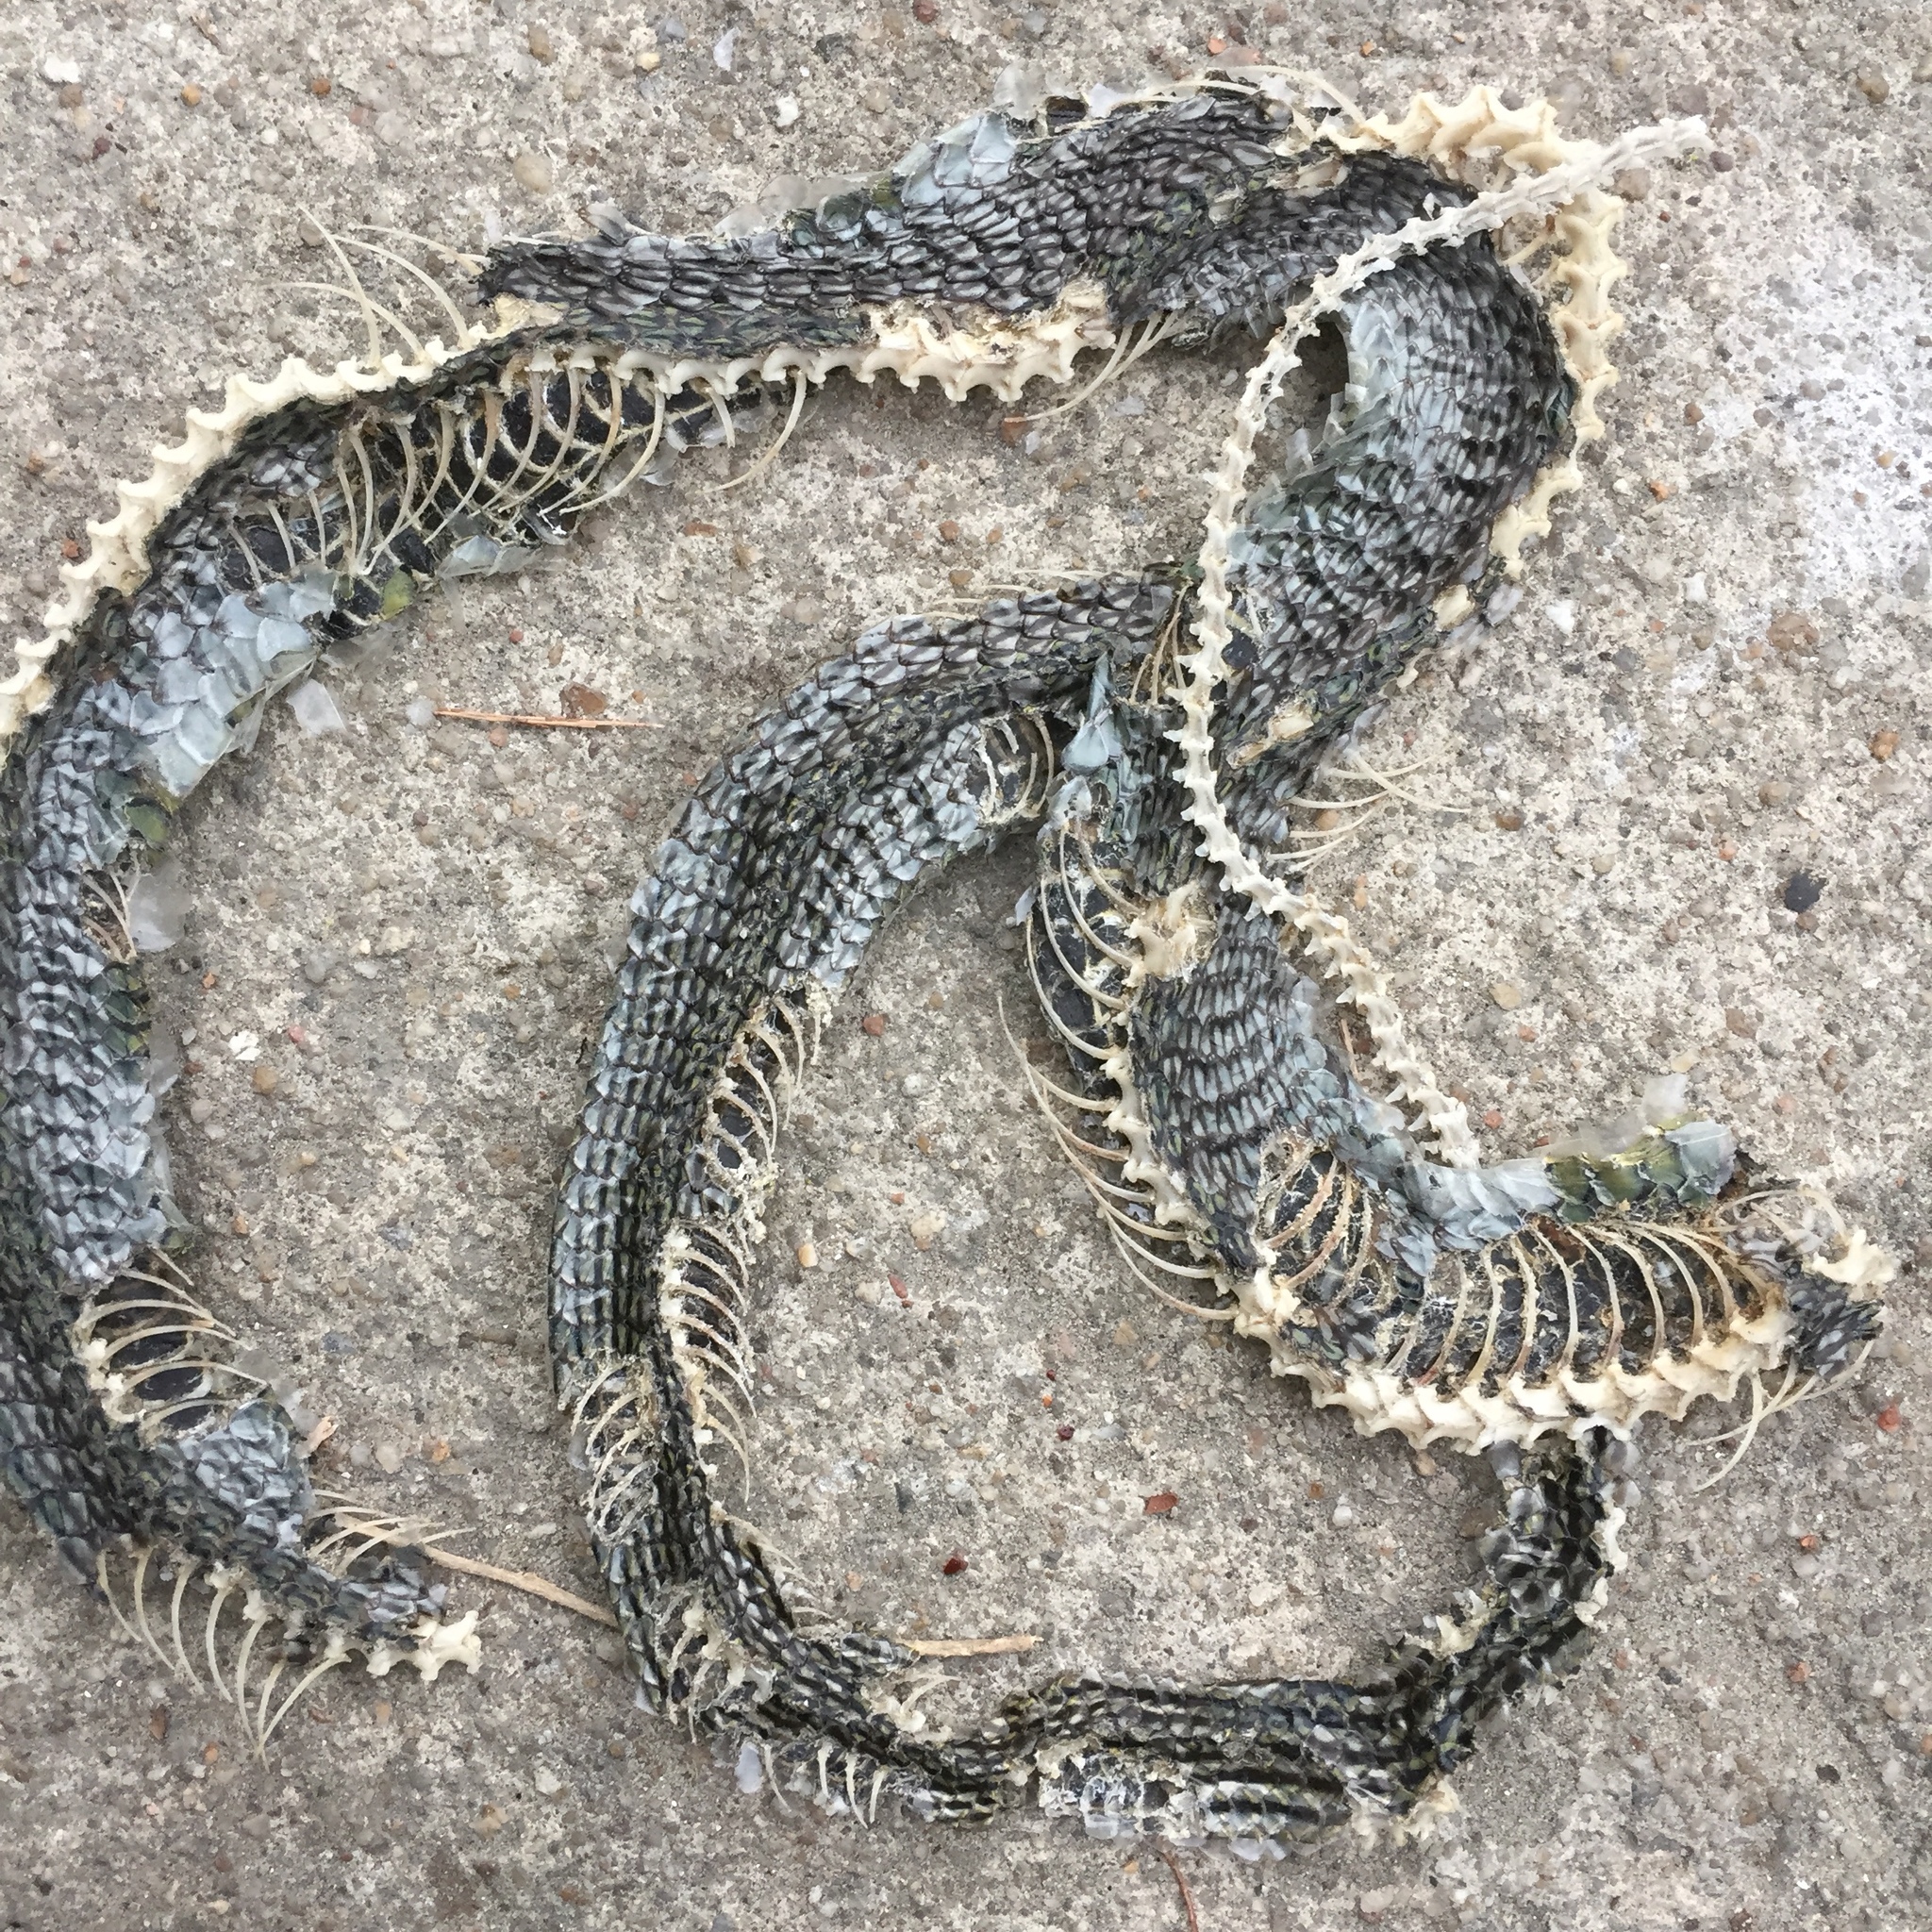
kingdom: Animalia
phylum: Chordata
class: Squamata
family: Colubridae
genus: Chrysopelea
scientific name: Chrysopelea ornata
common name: Golden flying snake
